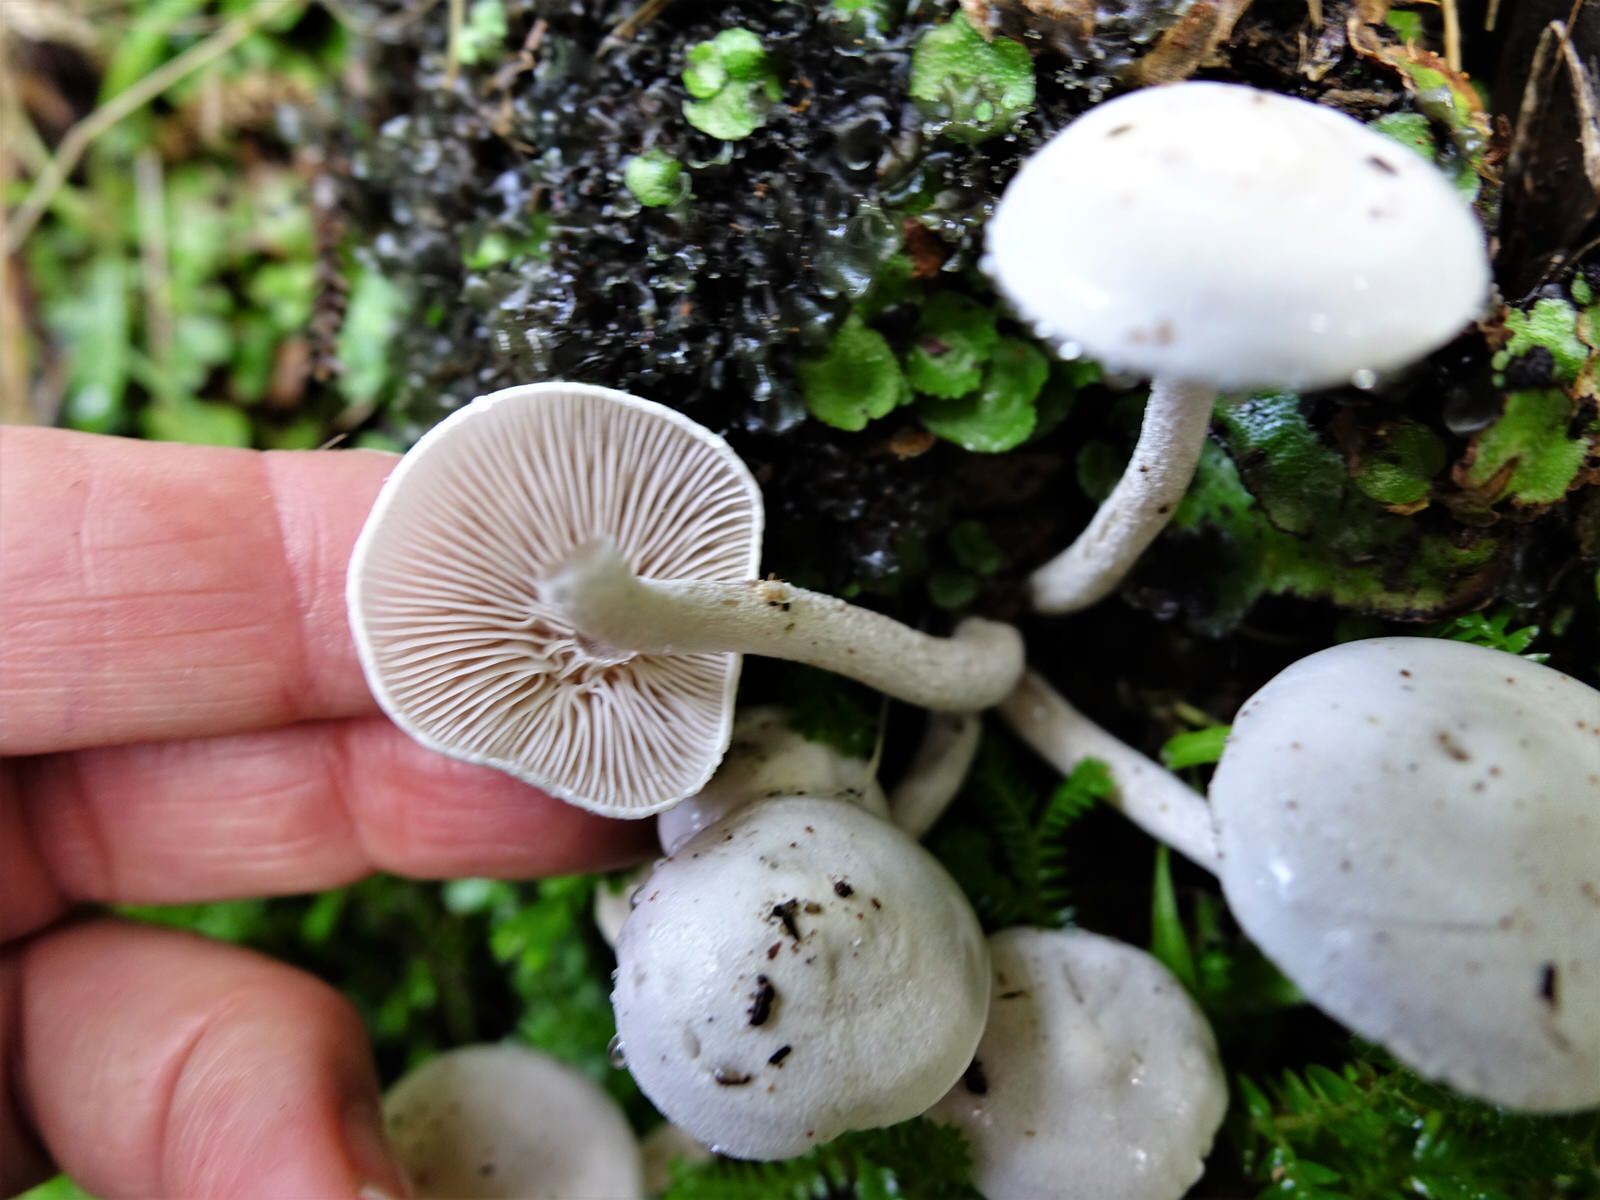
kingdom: Fungi
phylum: Basidiomycota
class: Agaricomycetes
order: Agaricales
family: Hygrophoraceae
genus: Hygrophorus
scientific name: Hygrophorus involutus
